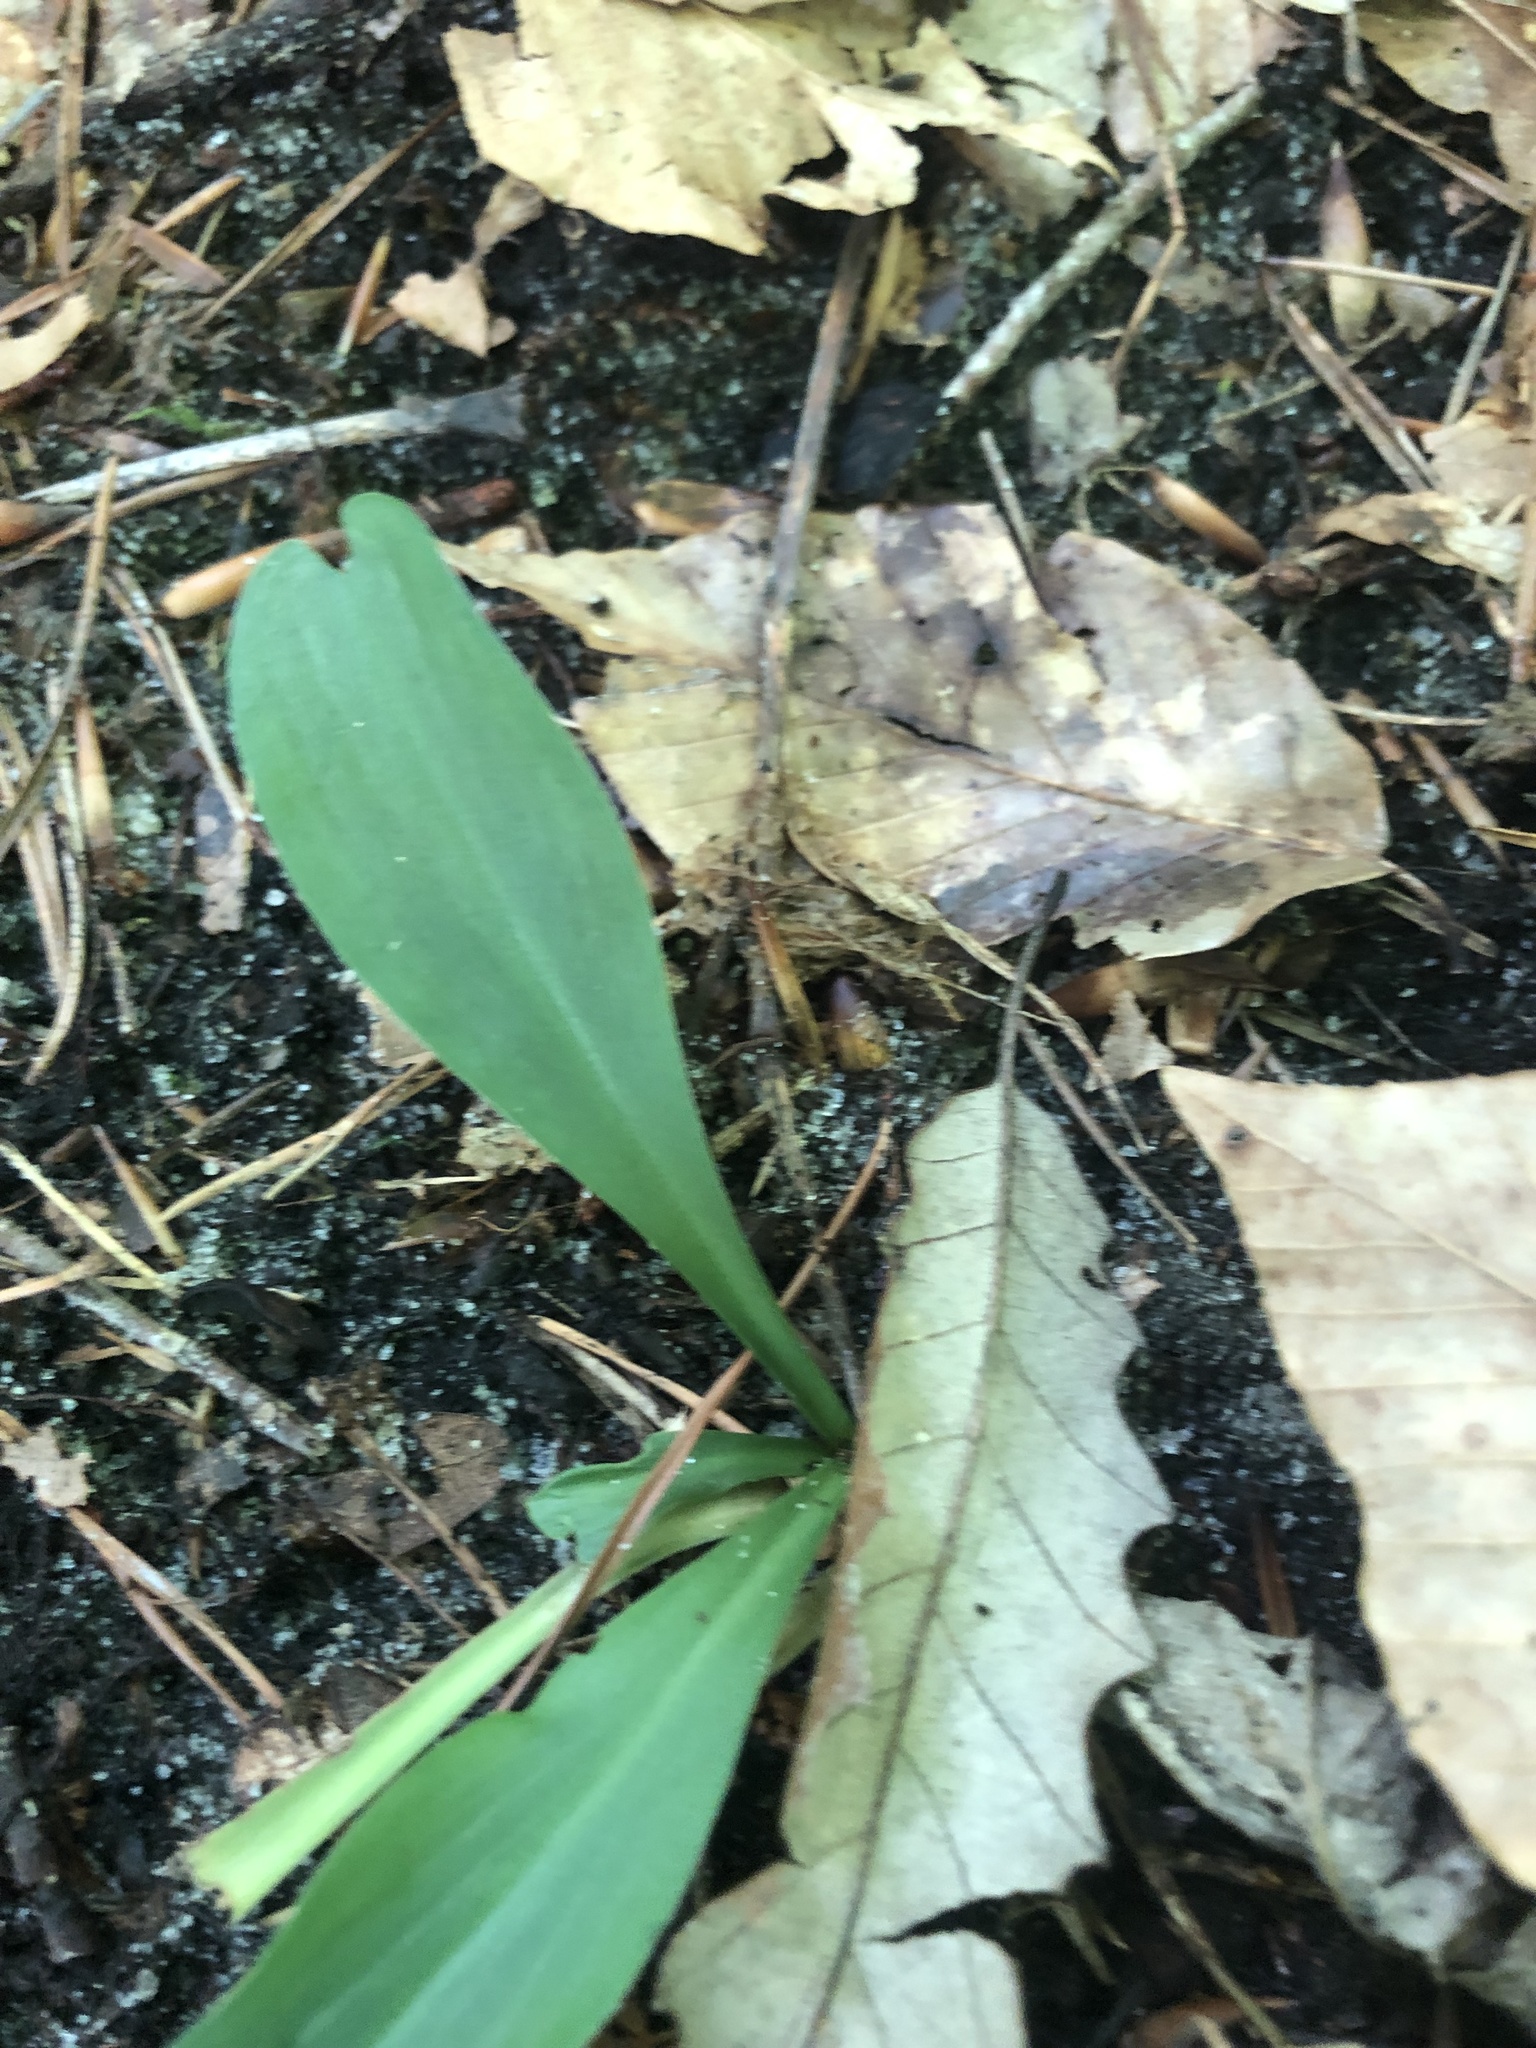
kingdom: Plantae
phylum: Tracheophyta
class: Liliopsida
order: Liliales
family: Melanthiaceae
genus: Chamaelirium
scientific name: Chamaelirium luteum
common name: Fairy-wand
